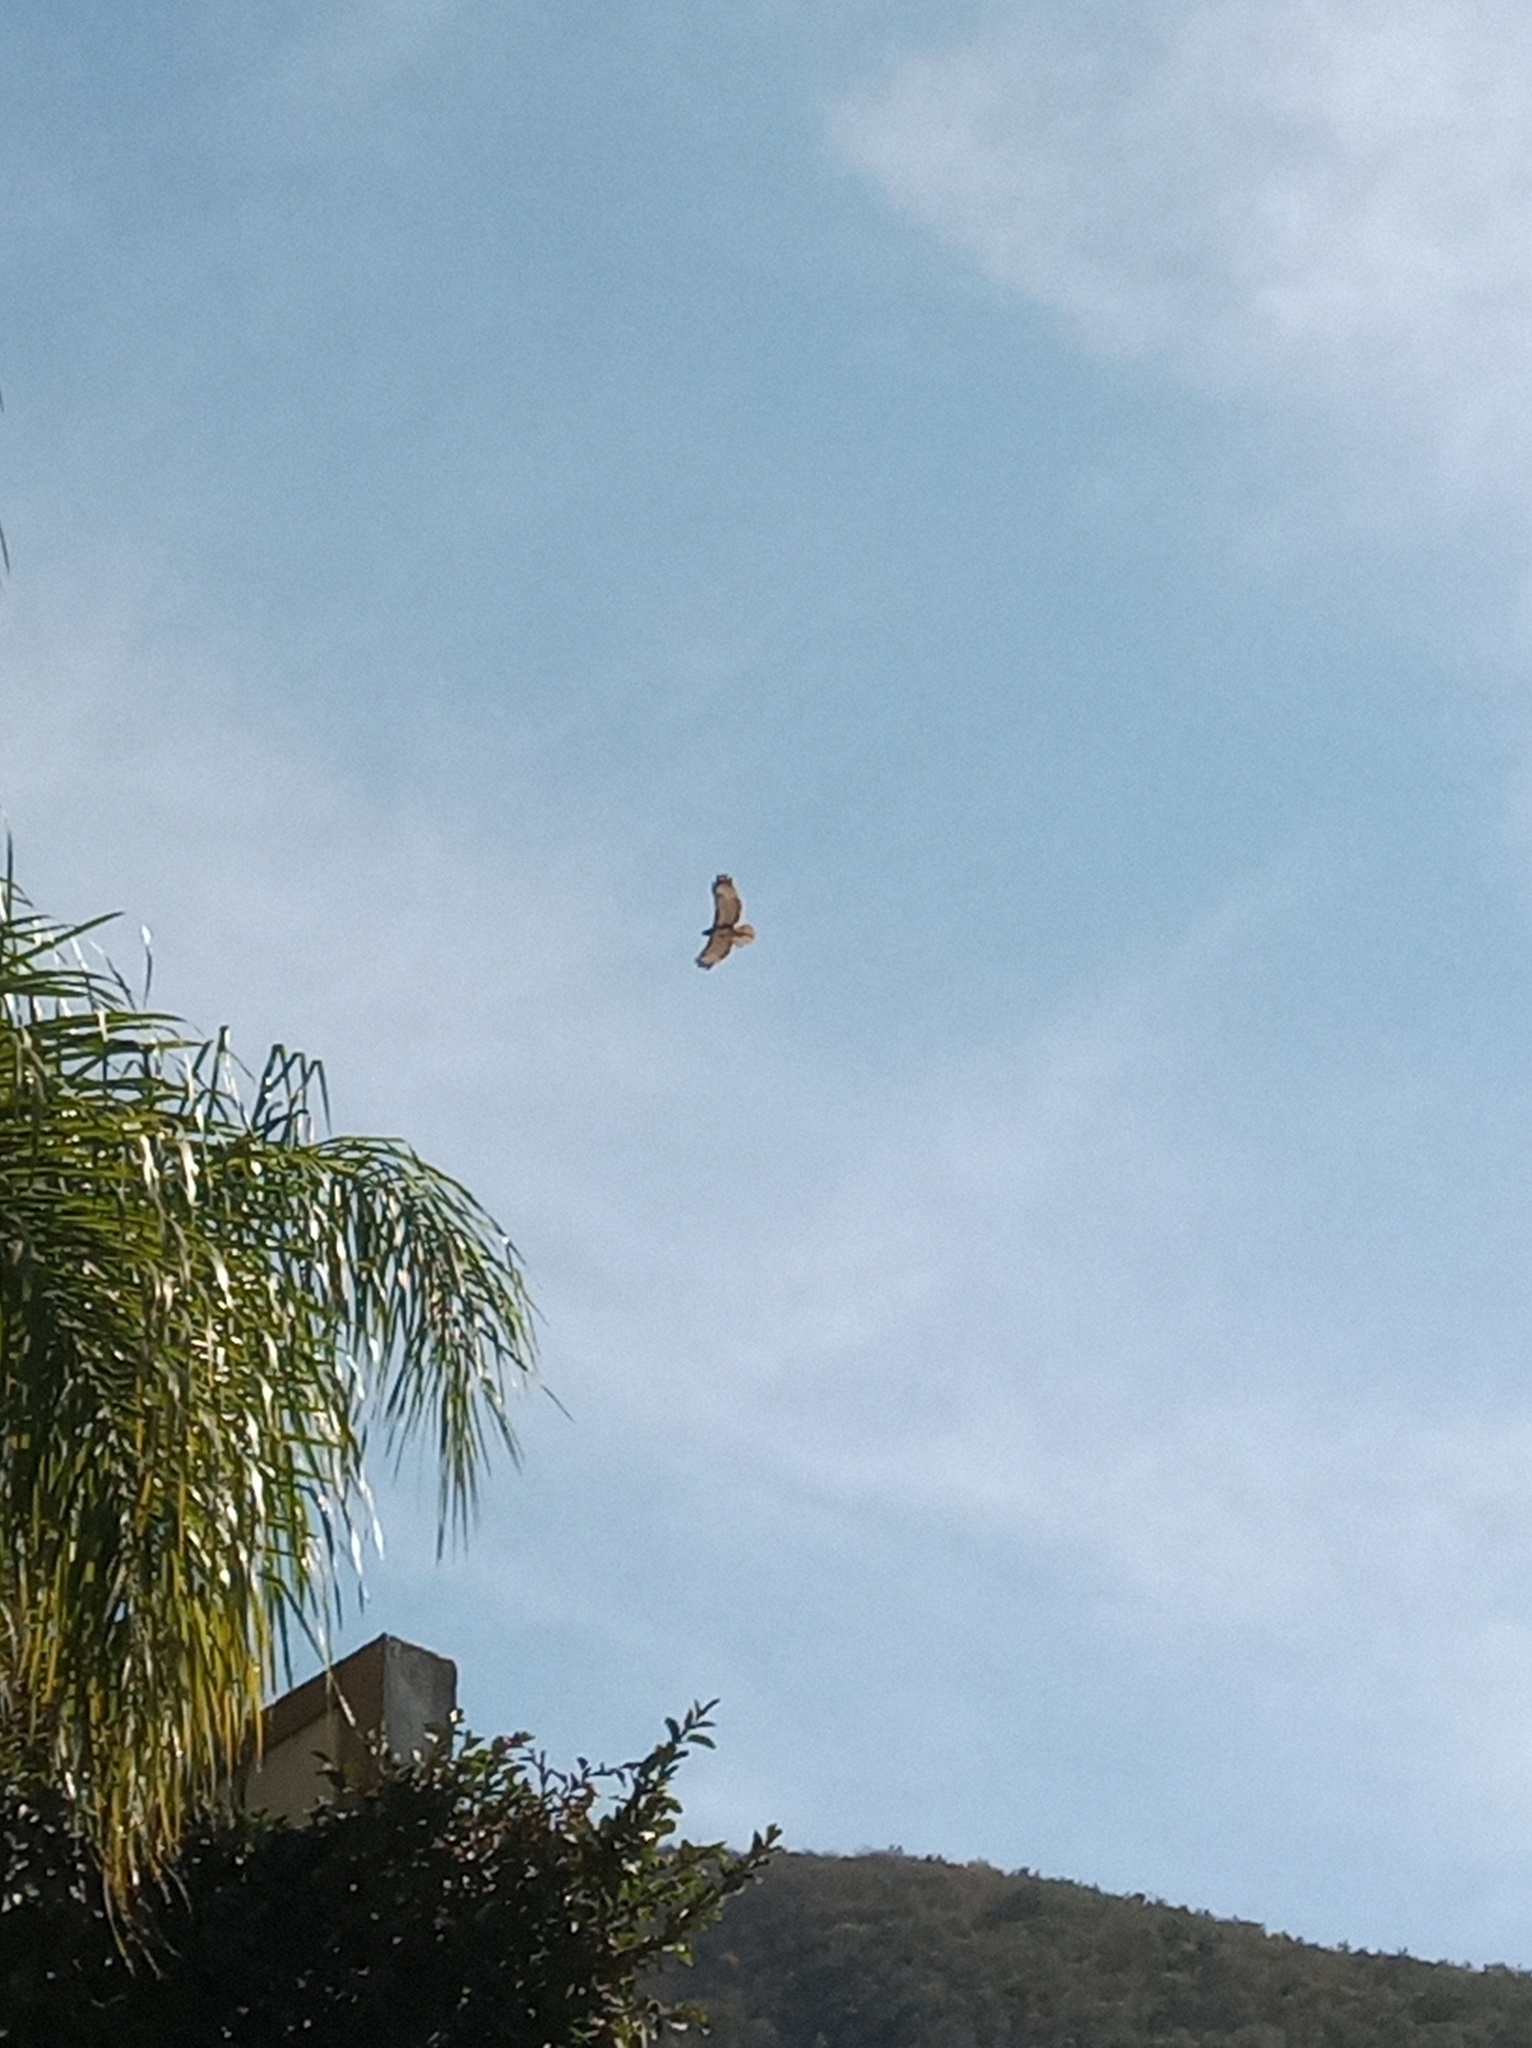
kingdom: Animalia
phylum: Chordata
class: Aves
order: Accipitriformes
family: Accipitridae
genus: Buteo
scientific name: Buteo jamaicensis
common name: Red-tailed hawk
